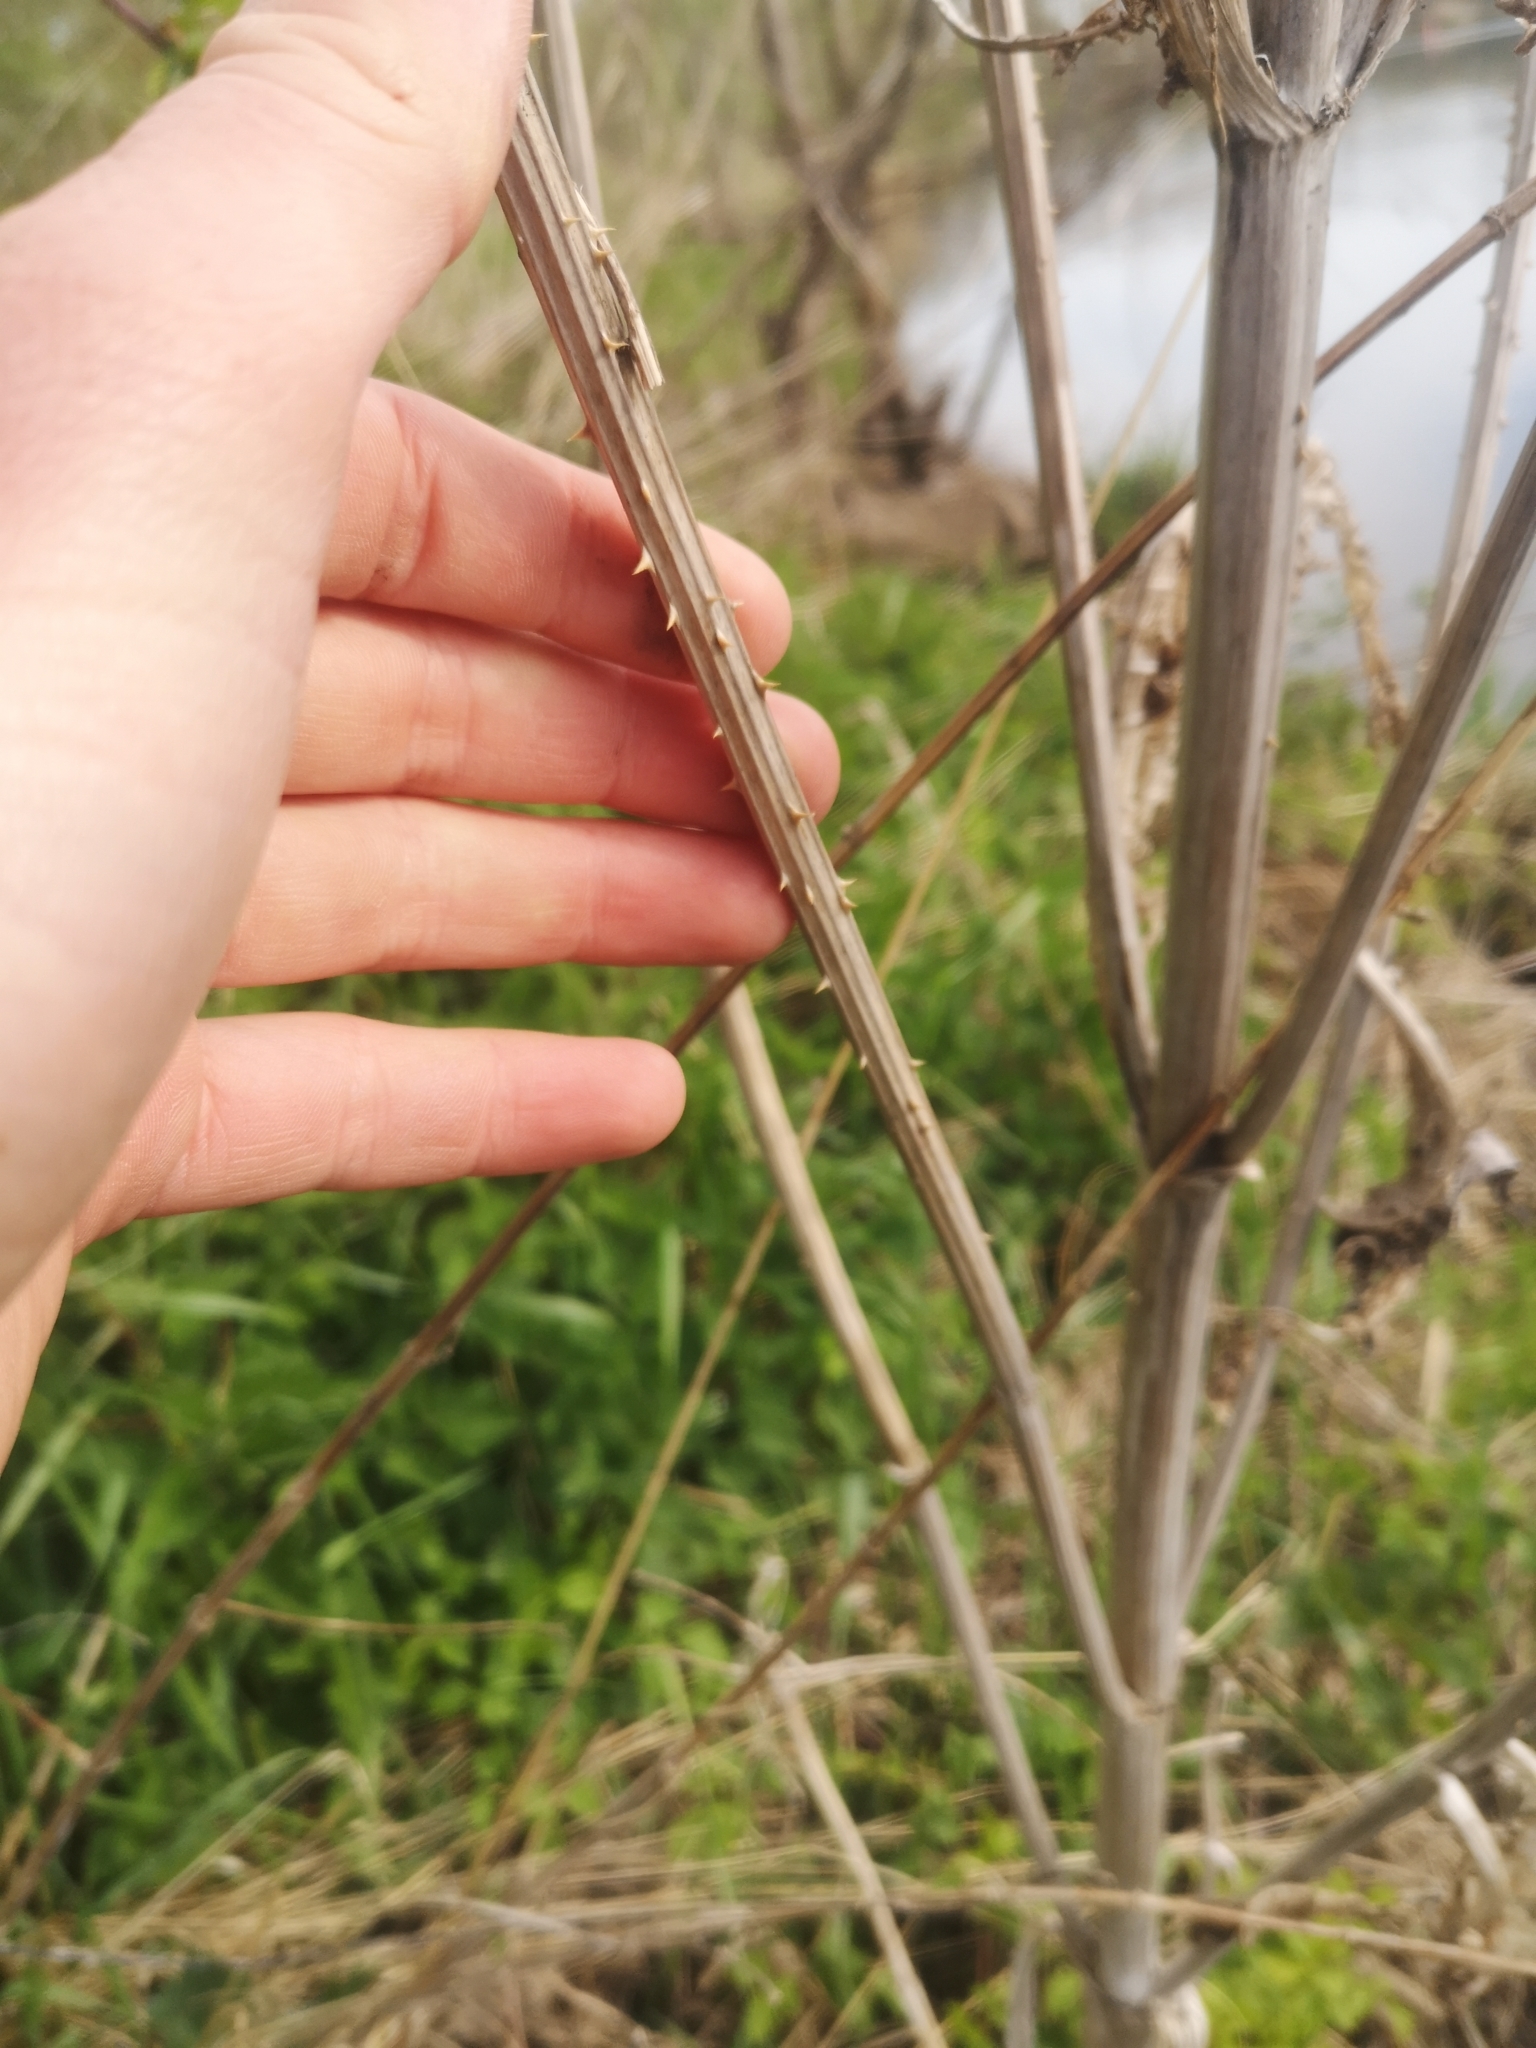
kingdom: Plantae
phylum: Tracheophyta
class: Magnoliopsida
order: Dipsacales
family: Caprifoliaceae
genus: Dipsacus
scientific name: Dipsacus fullonum
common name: Teasel
